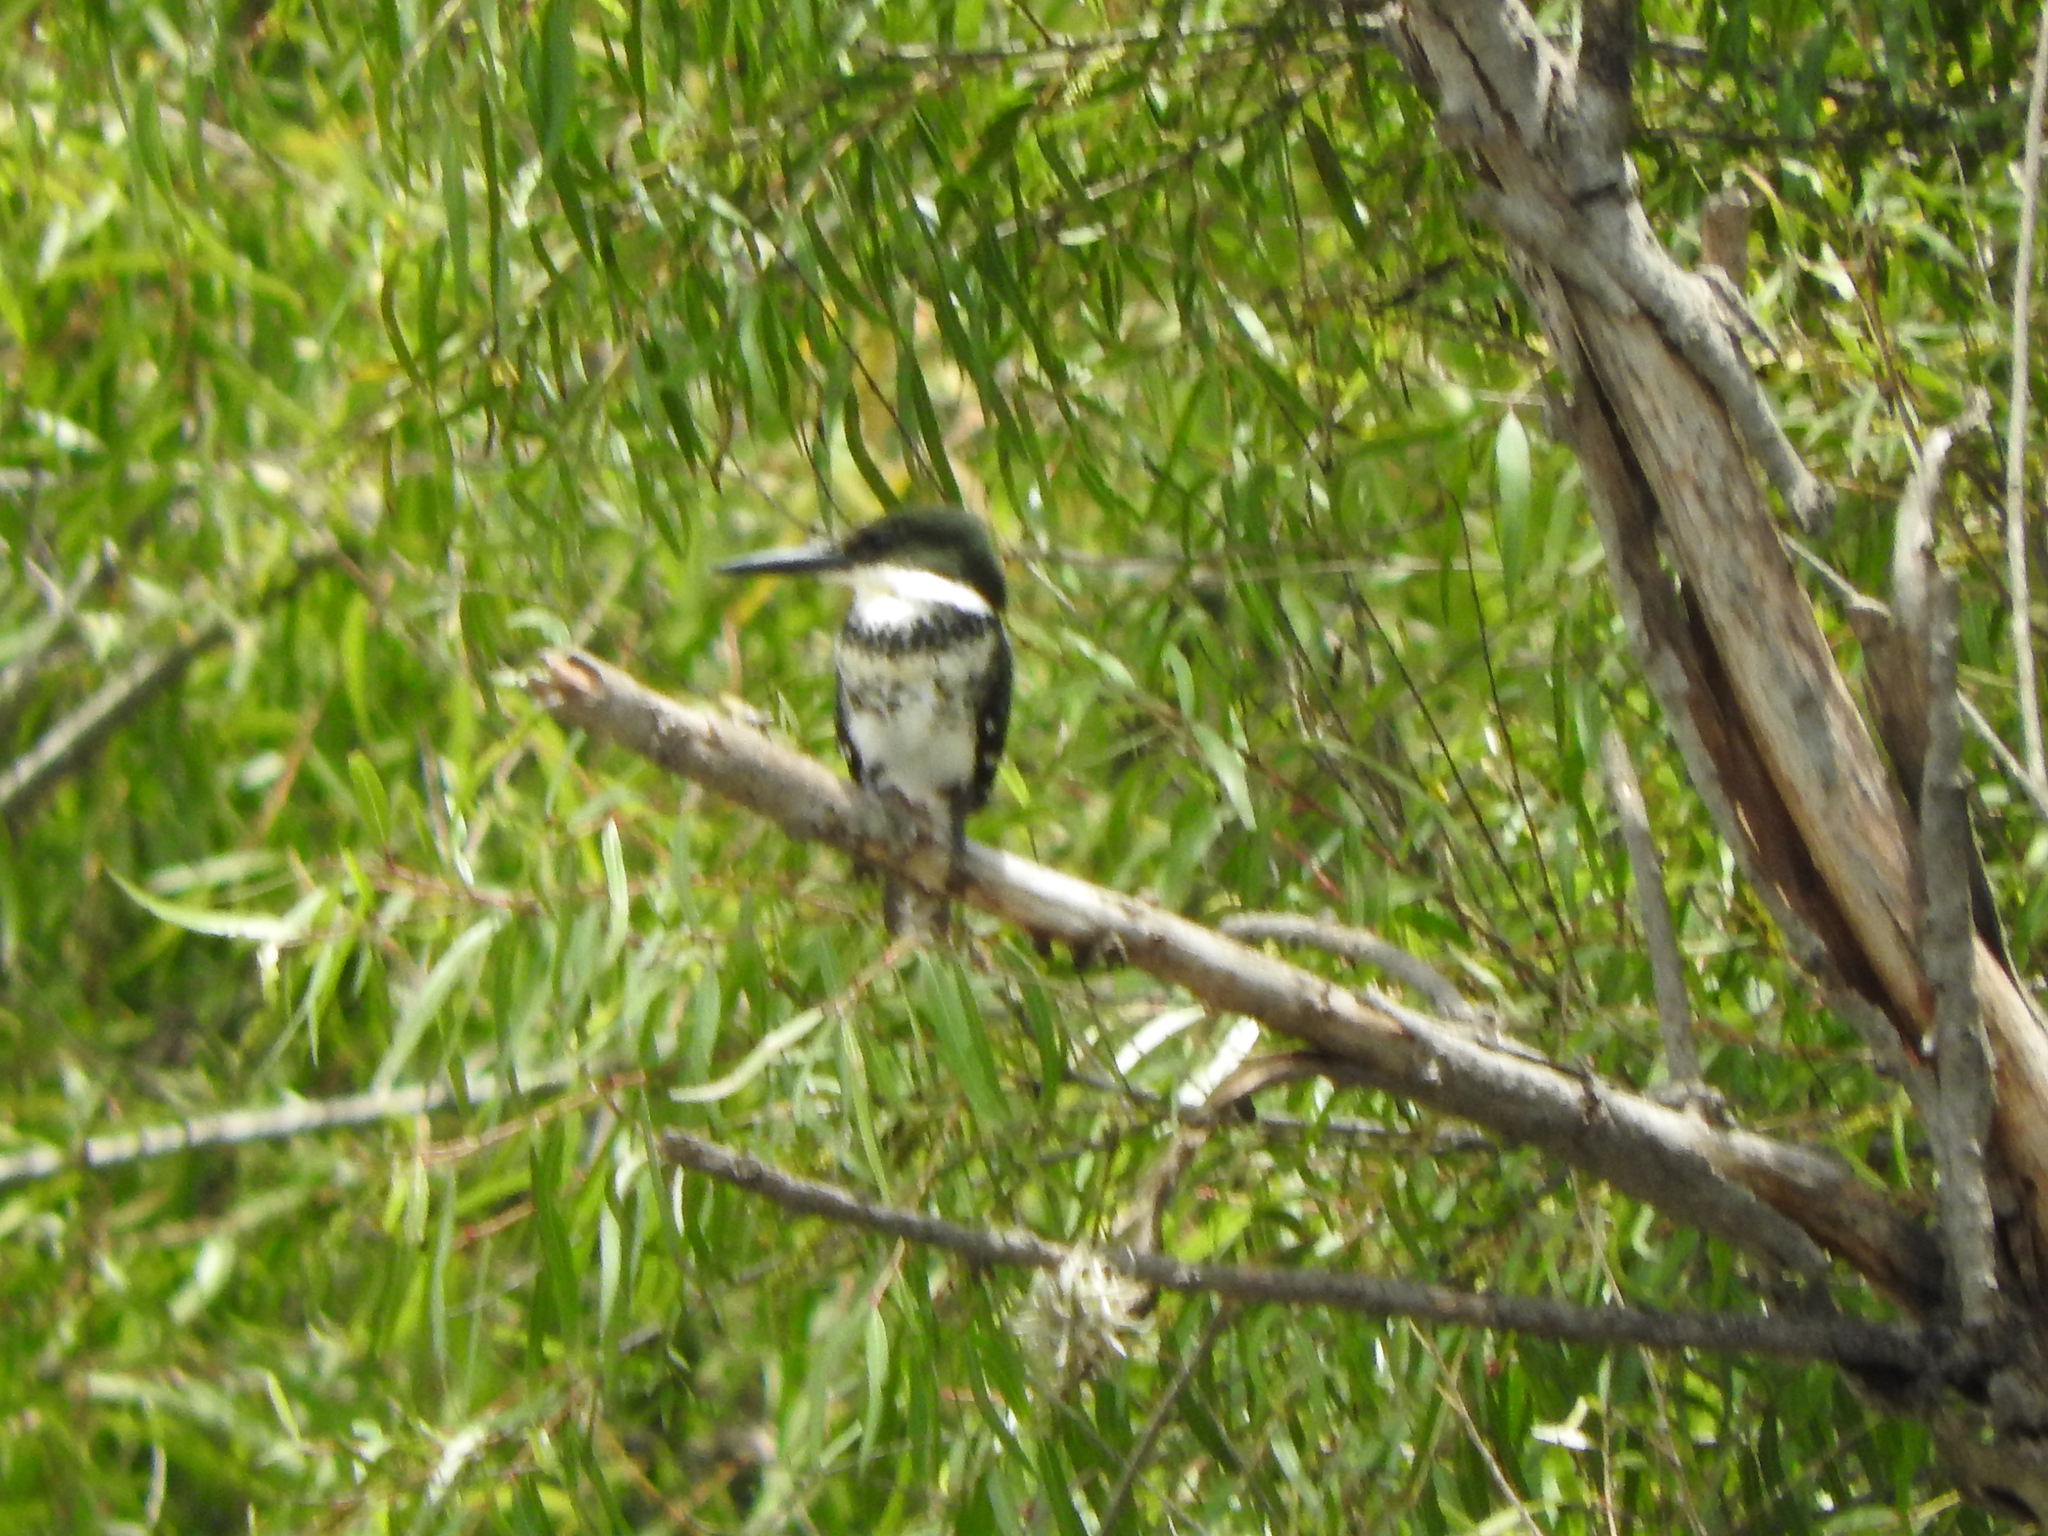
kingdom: Animalia
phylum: Chordata
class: Aves
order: Coraciiformes
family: Alcedinidae
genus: Chloroceryle
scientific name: Chloroceryle americana
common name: Green kingfisher
